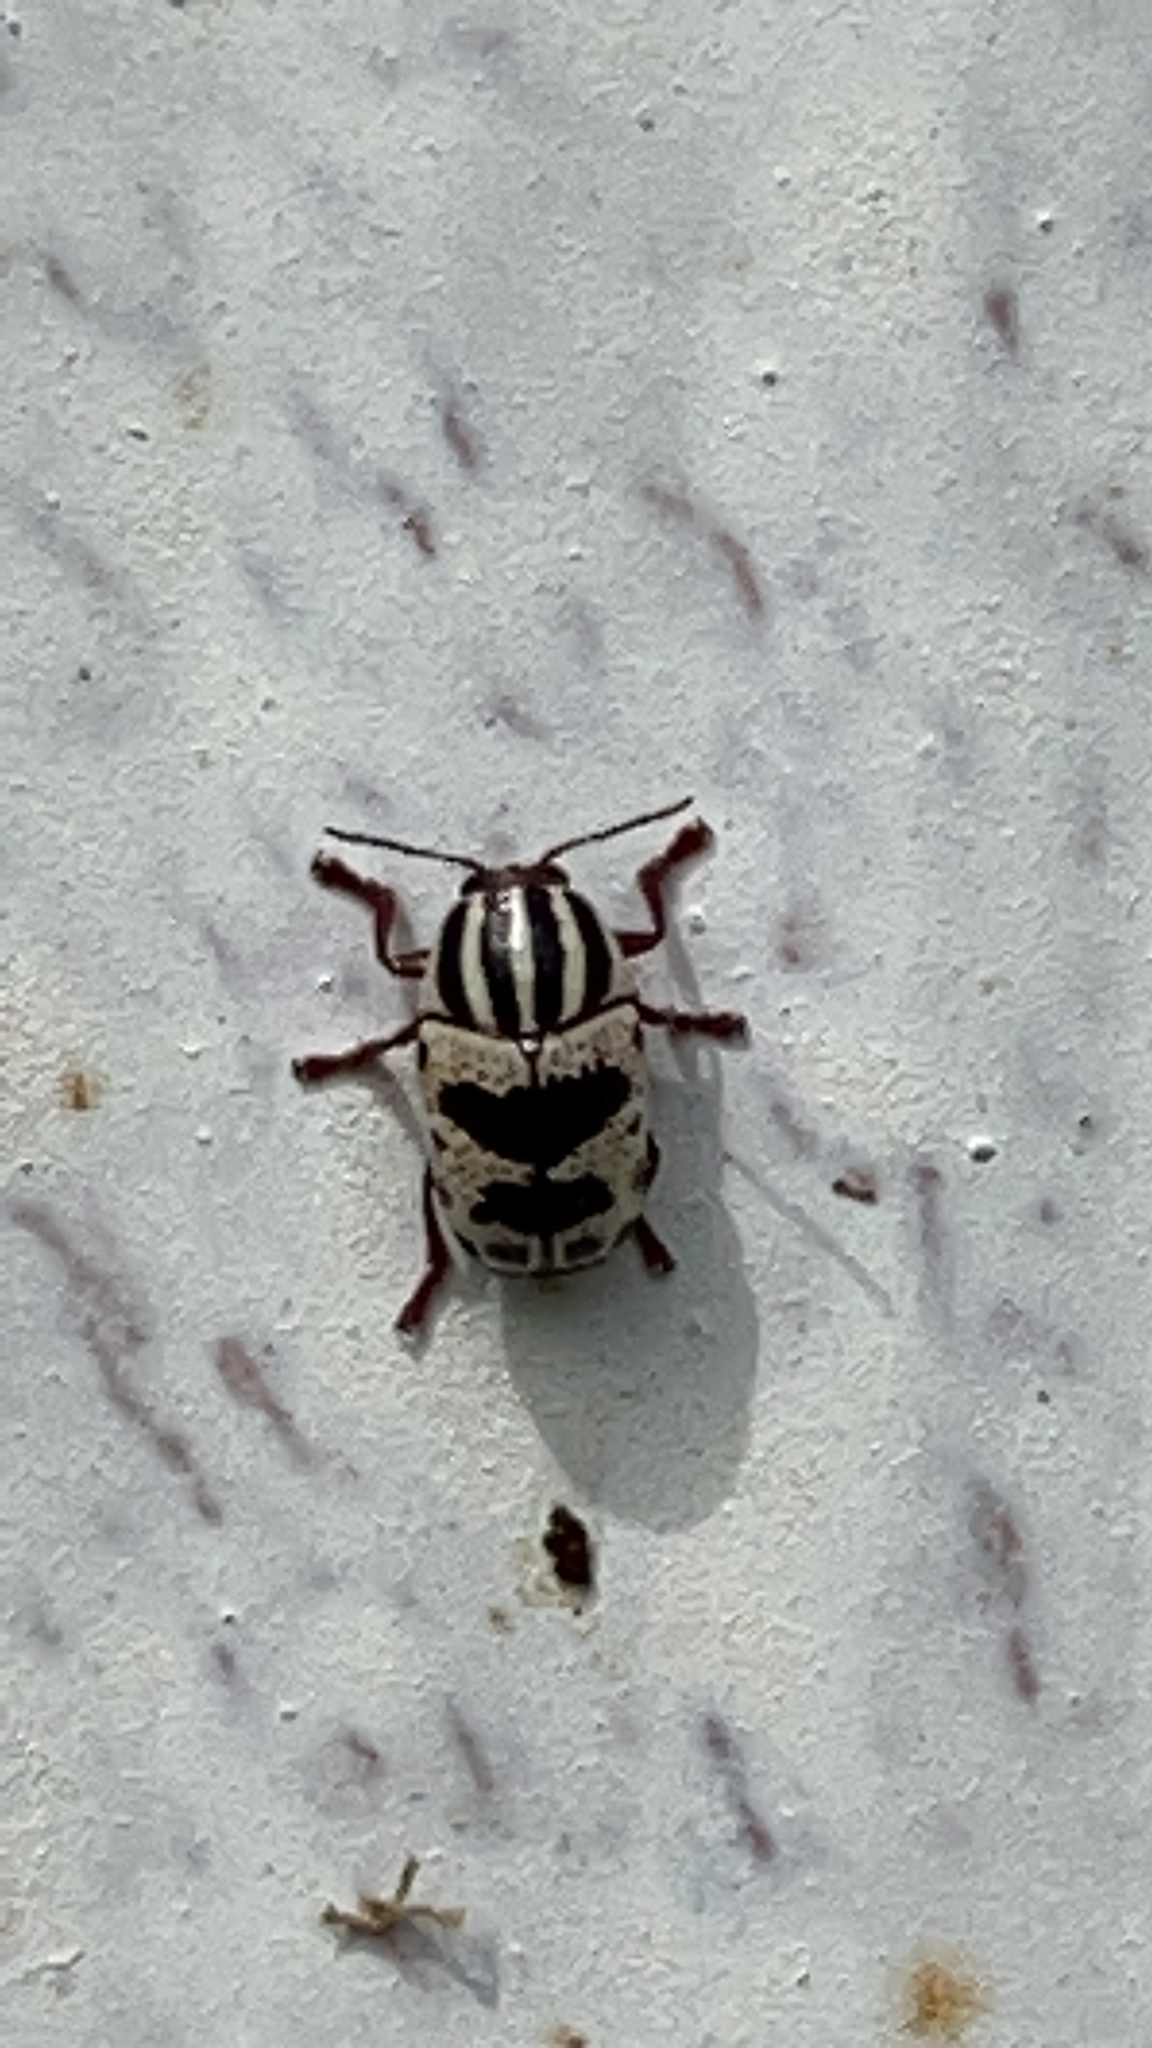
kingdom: Animalia
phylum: Arthropoda
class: Insecta
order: Coleoptera
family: Chrysomelidae
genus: Cryptocephalus
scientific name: Cryptocephalus leucomelas
